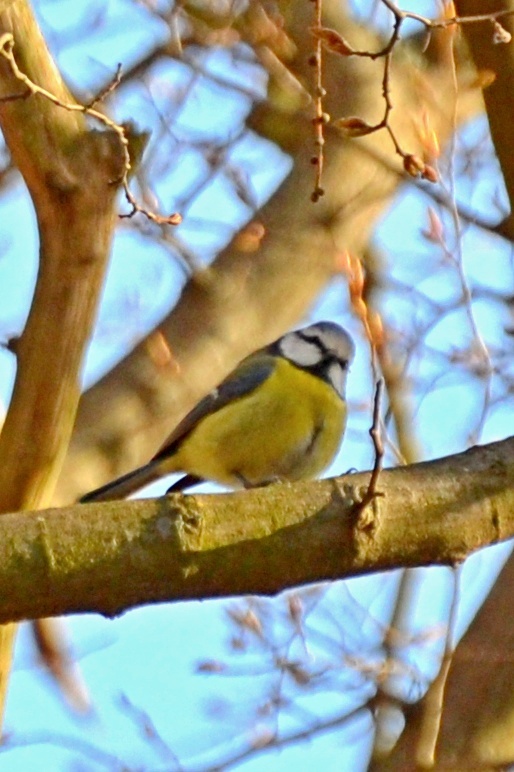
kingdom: Animalia
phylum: Chordata
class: Aves
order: Passeriformes
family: Paridae
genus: Cyanistes
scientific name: Cyanistes caeruleus
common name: Eurasian blue tit
